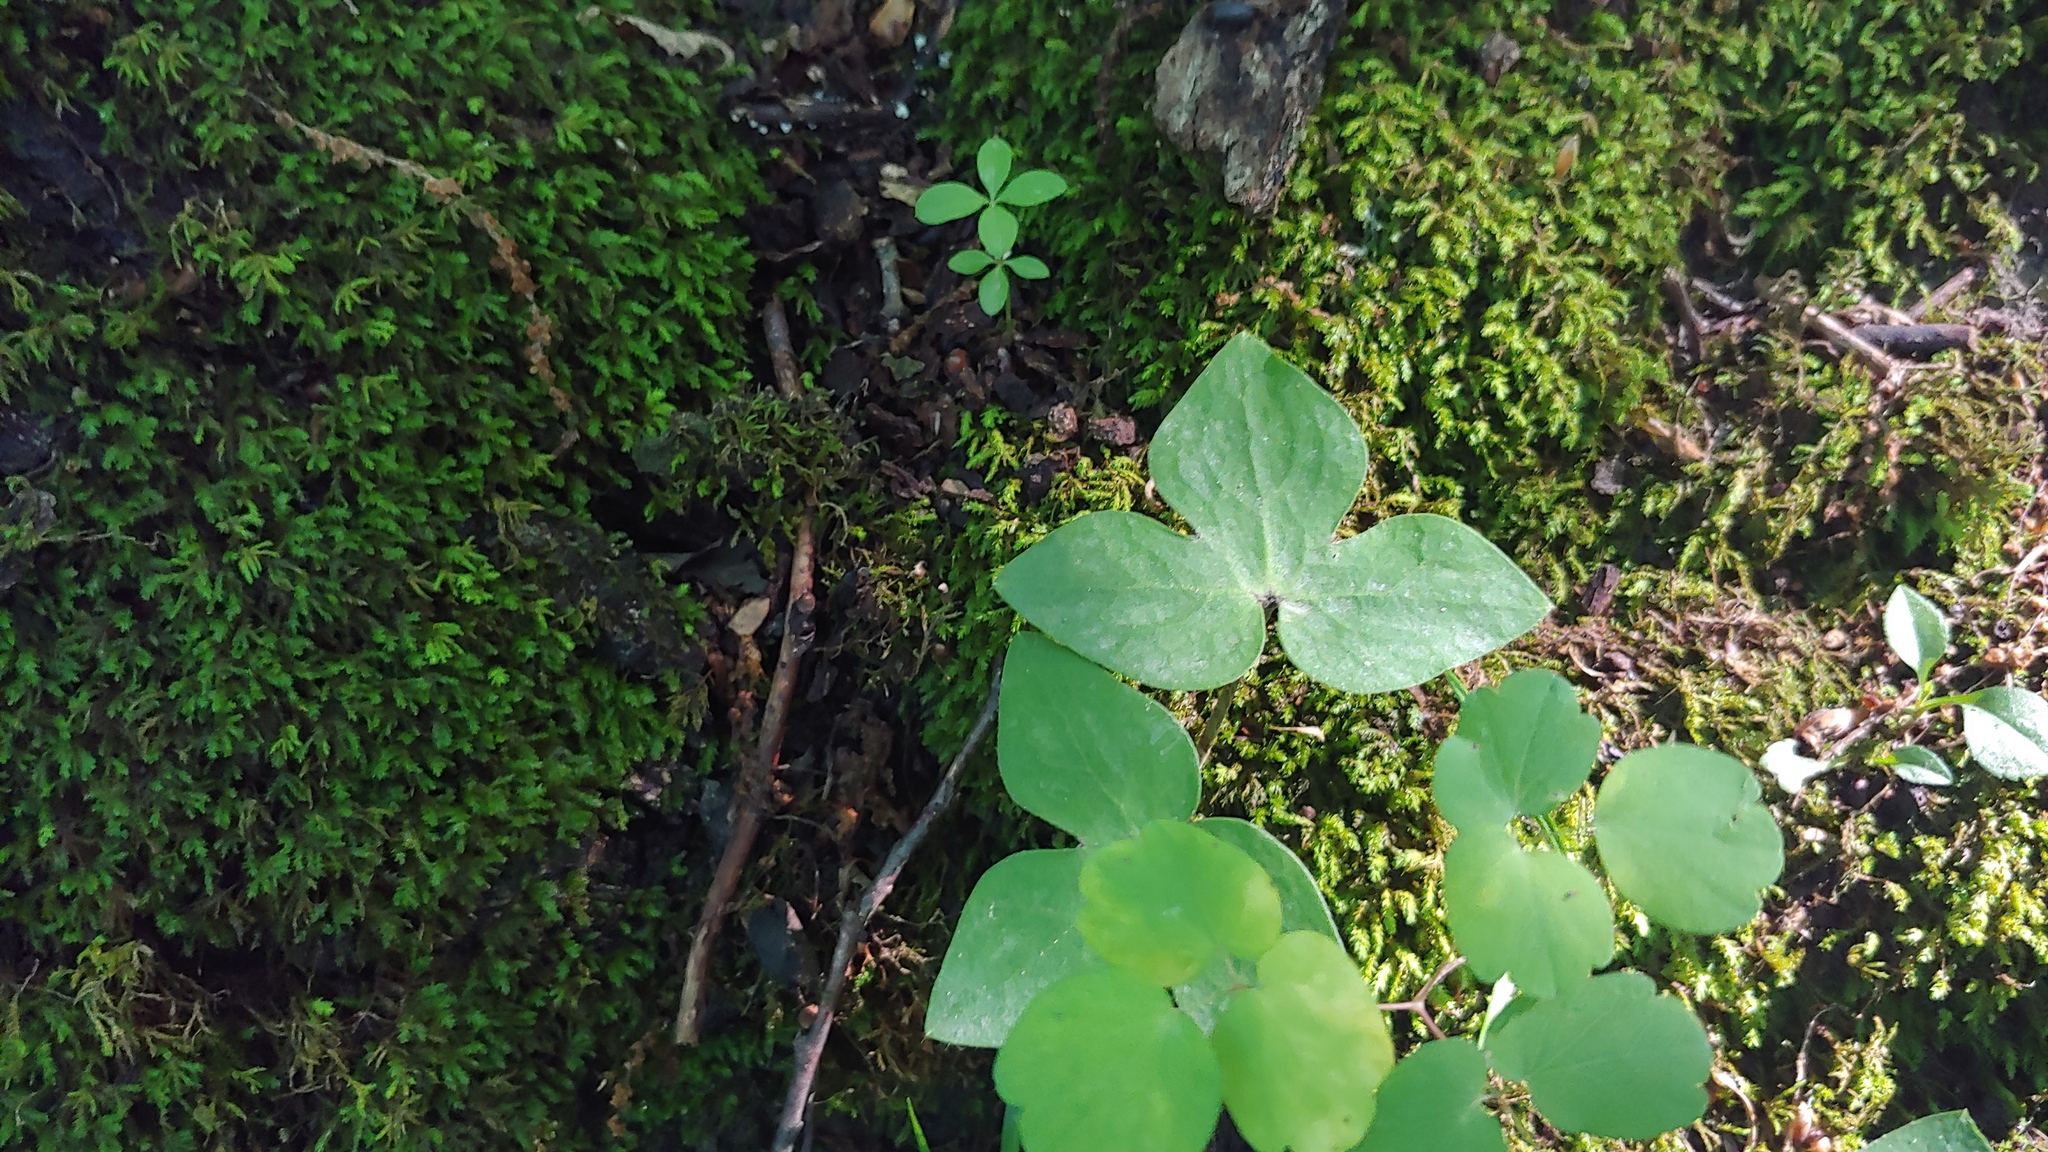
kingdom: Plantae
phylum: Tracheophyta
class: Magnoliopsida
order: Ranunculales
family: Ranunculaceae
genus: Hepatica
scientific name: Hepatica acutiloba
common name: Sharp-lobed hepatica
